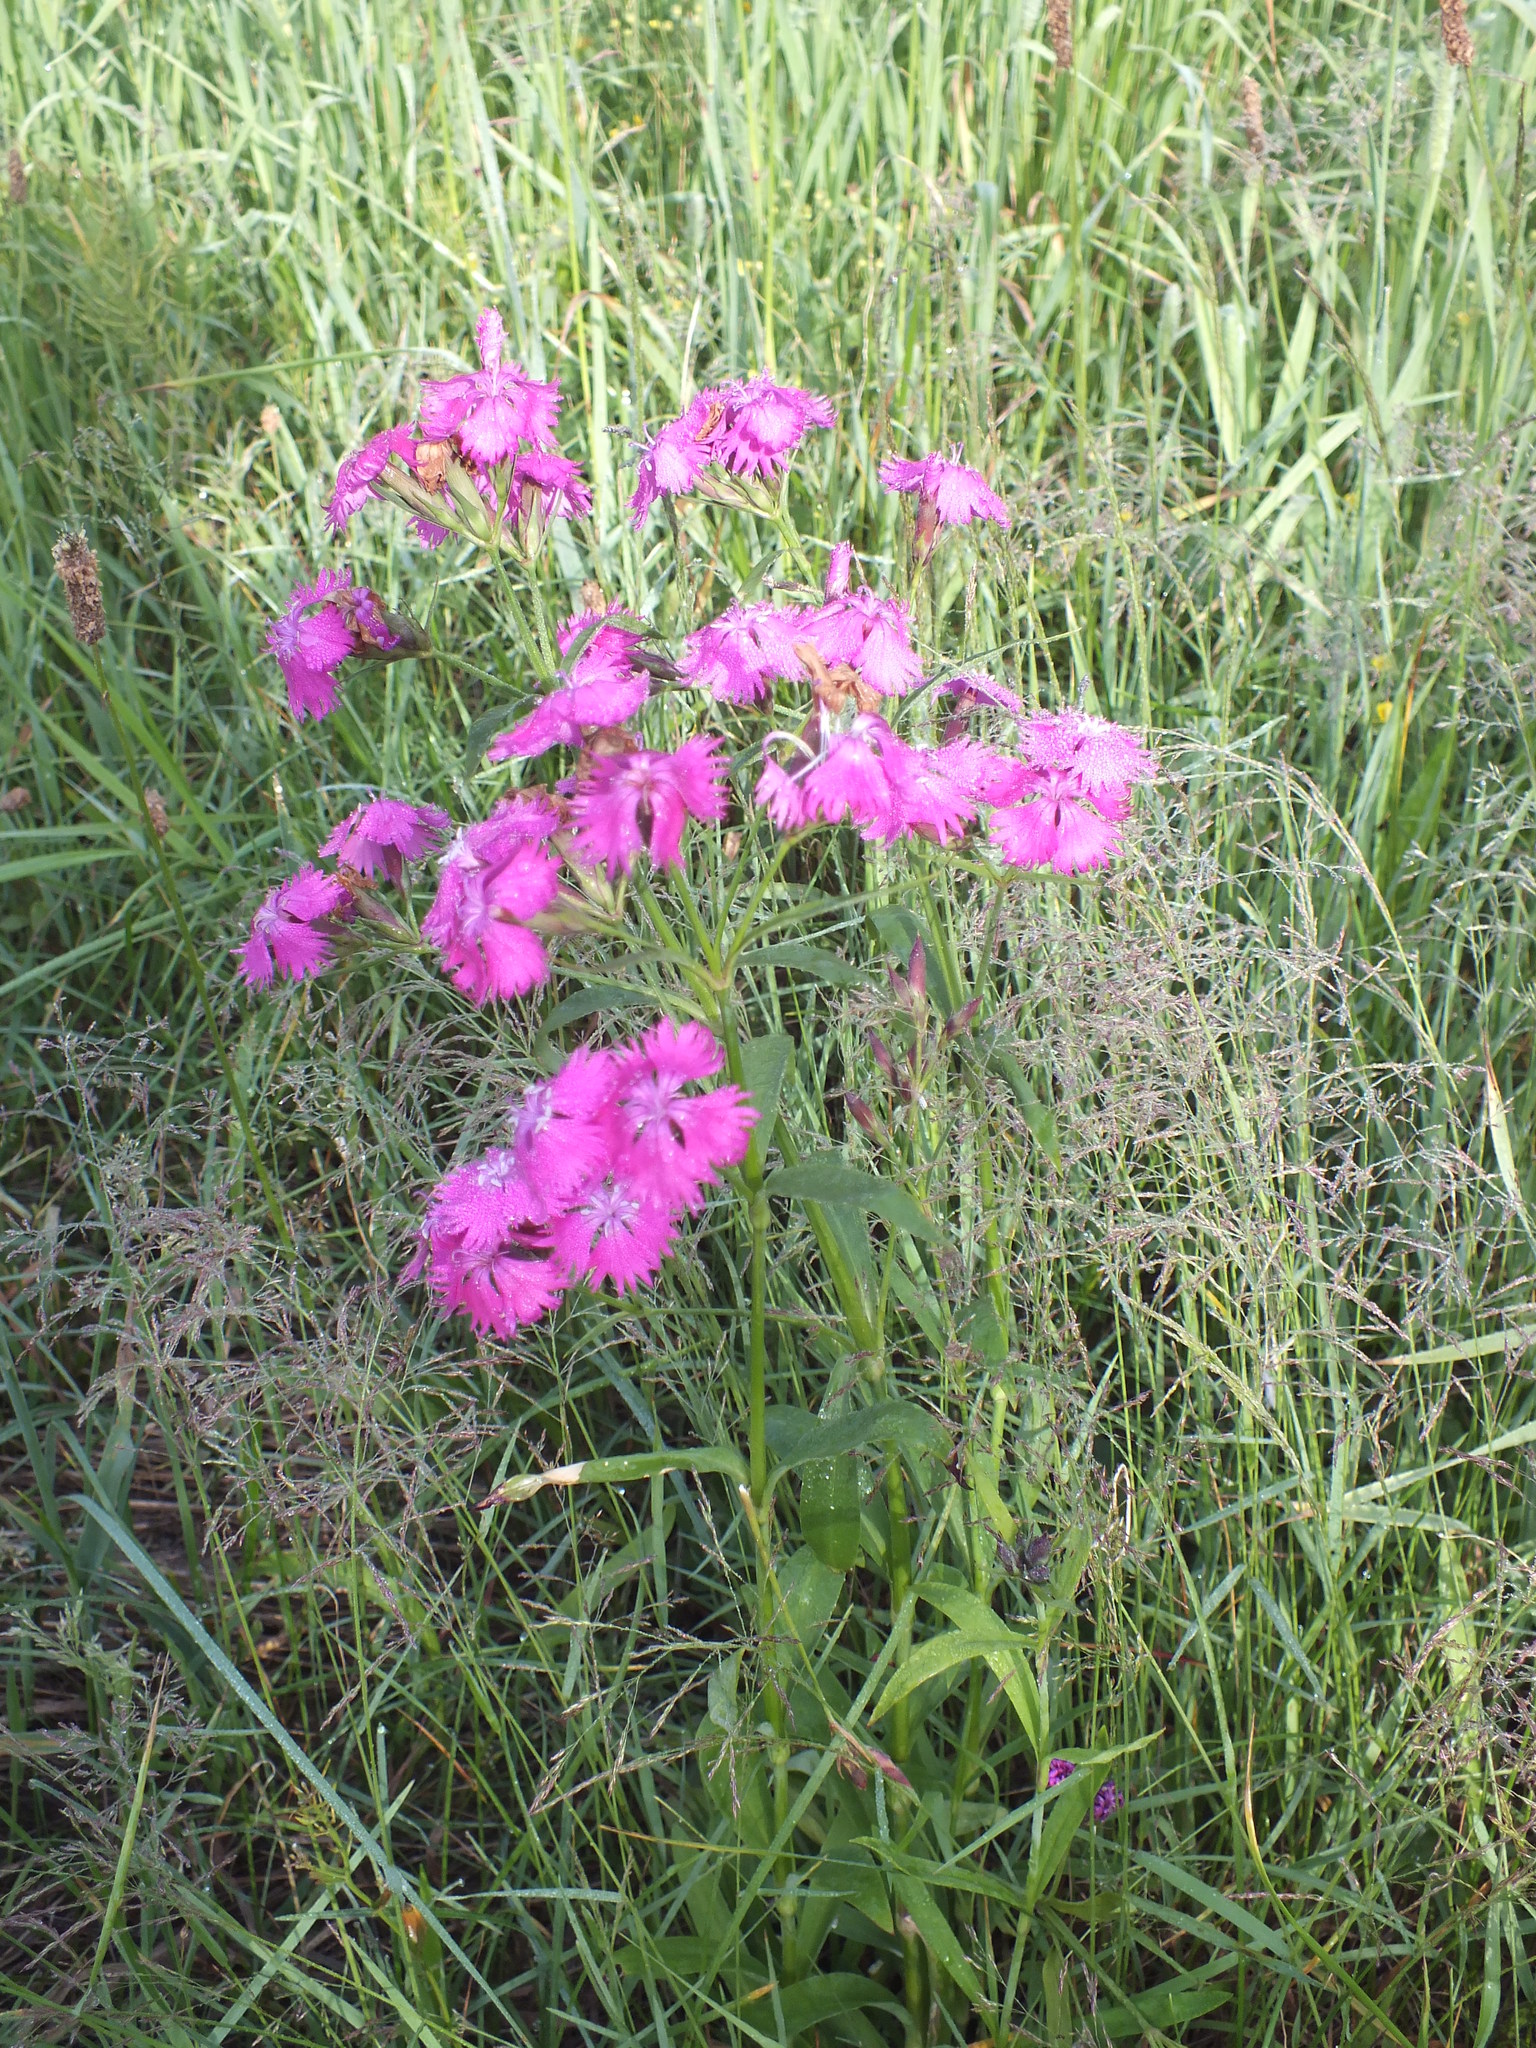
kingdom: Plantae
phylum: Tracheophyta
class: Magnoliopsida
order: Caryophyllales
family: Caryophyllaceae
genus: Dianthus
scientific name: Dianthus courtoisii
